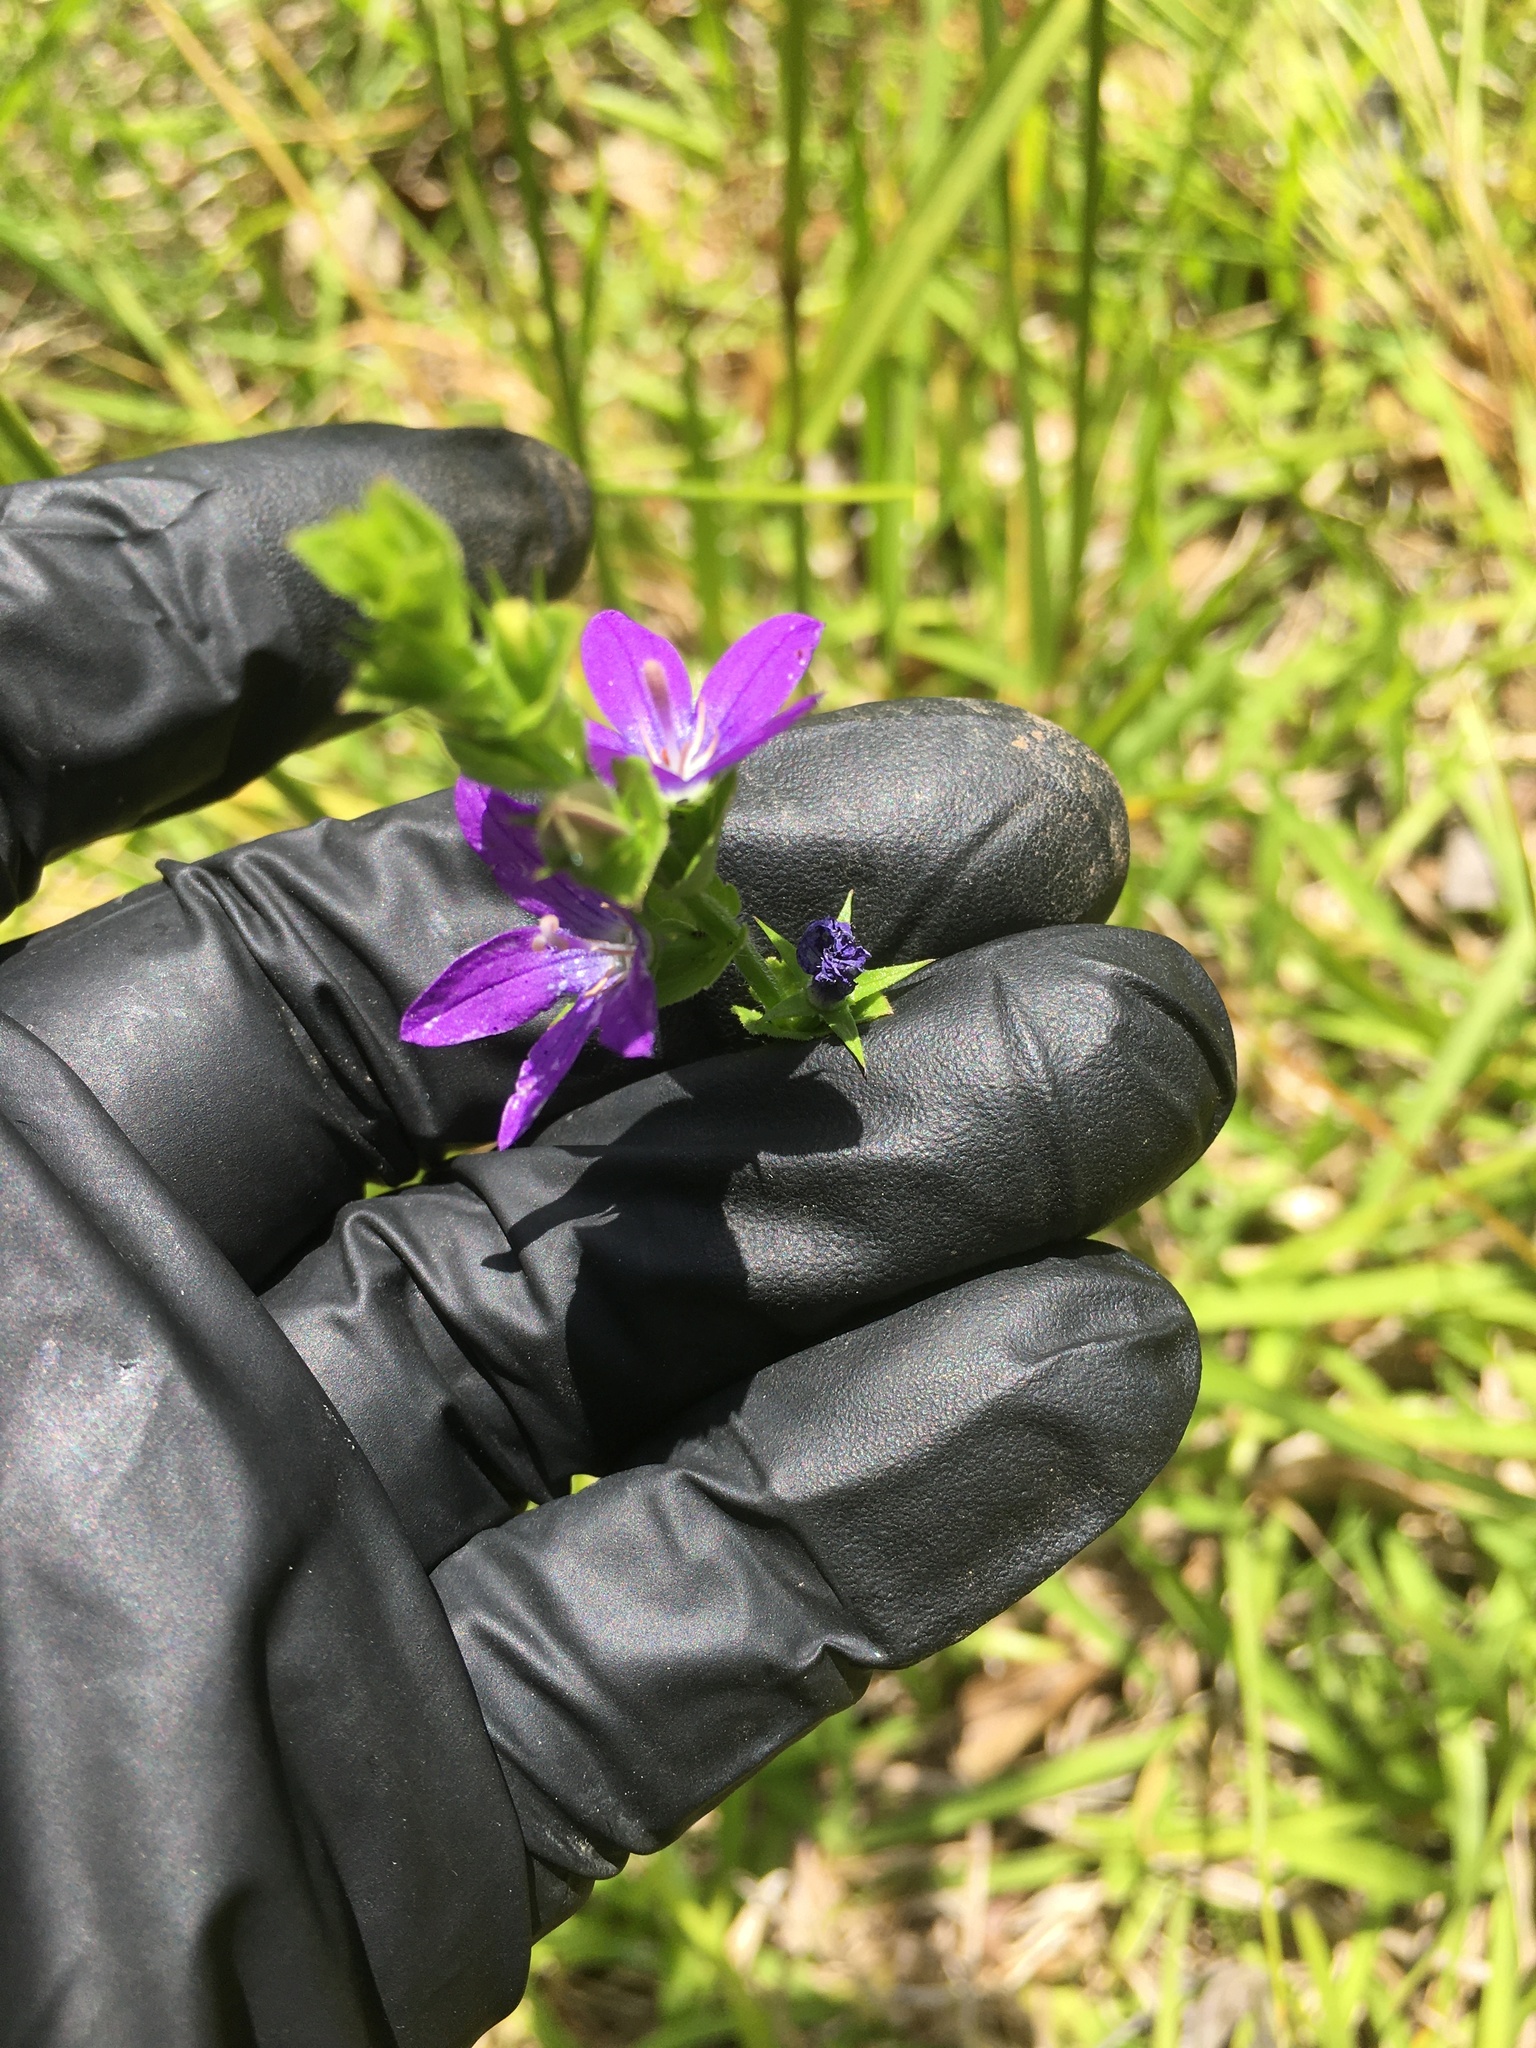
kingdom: Plantae
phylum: Tracheophyta
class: Magnoliopsida
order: Asterales
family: Campanulaceae
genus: Triodanis
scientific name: Triodanis perfoliata
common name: Clasping venus' looking-glass
